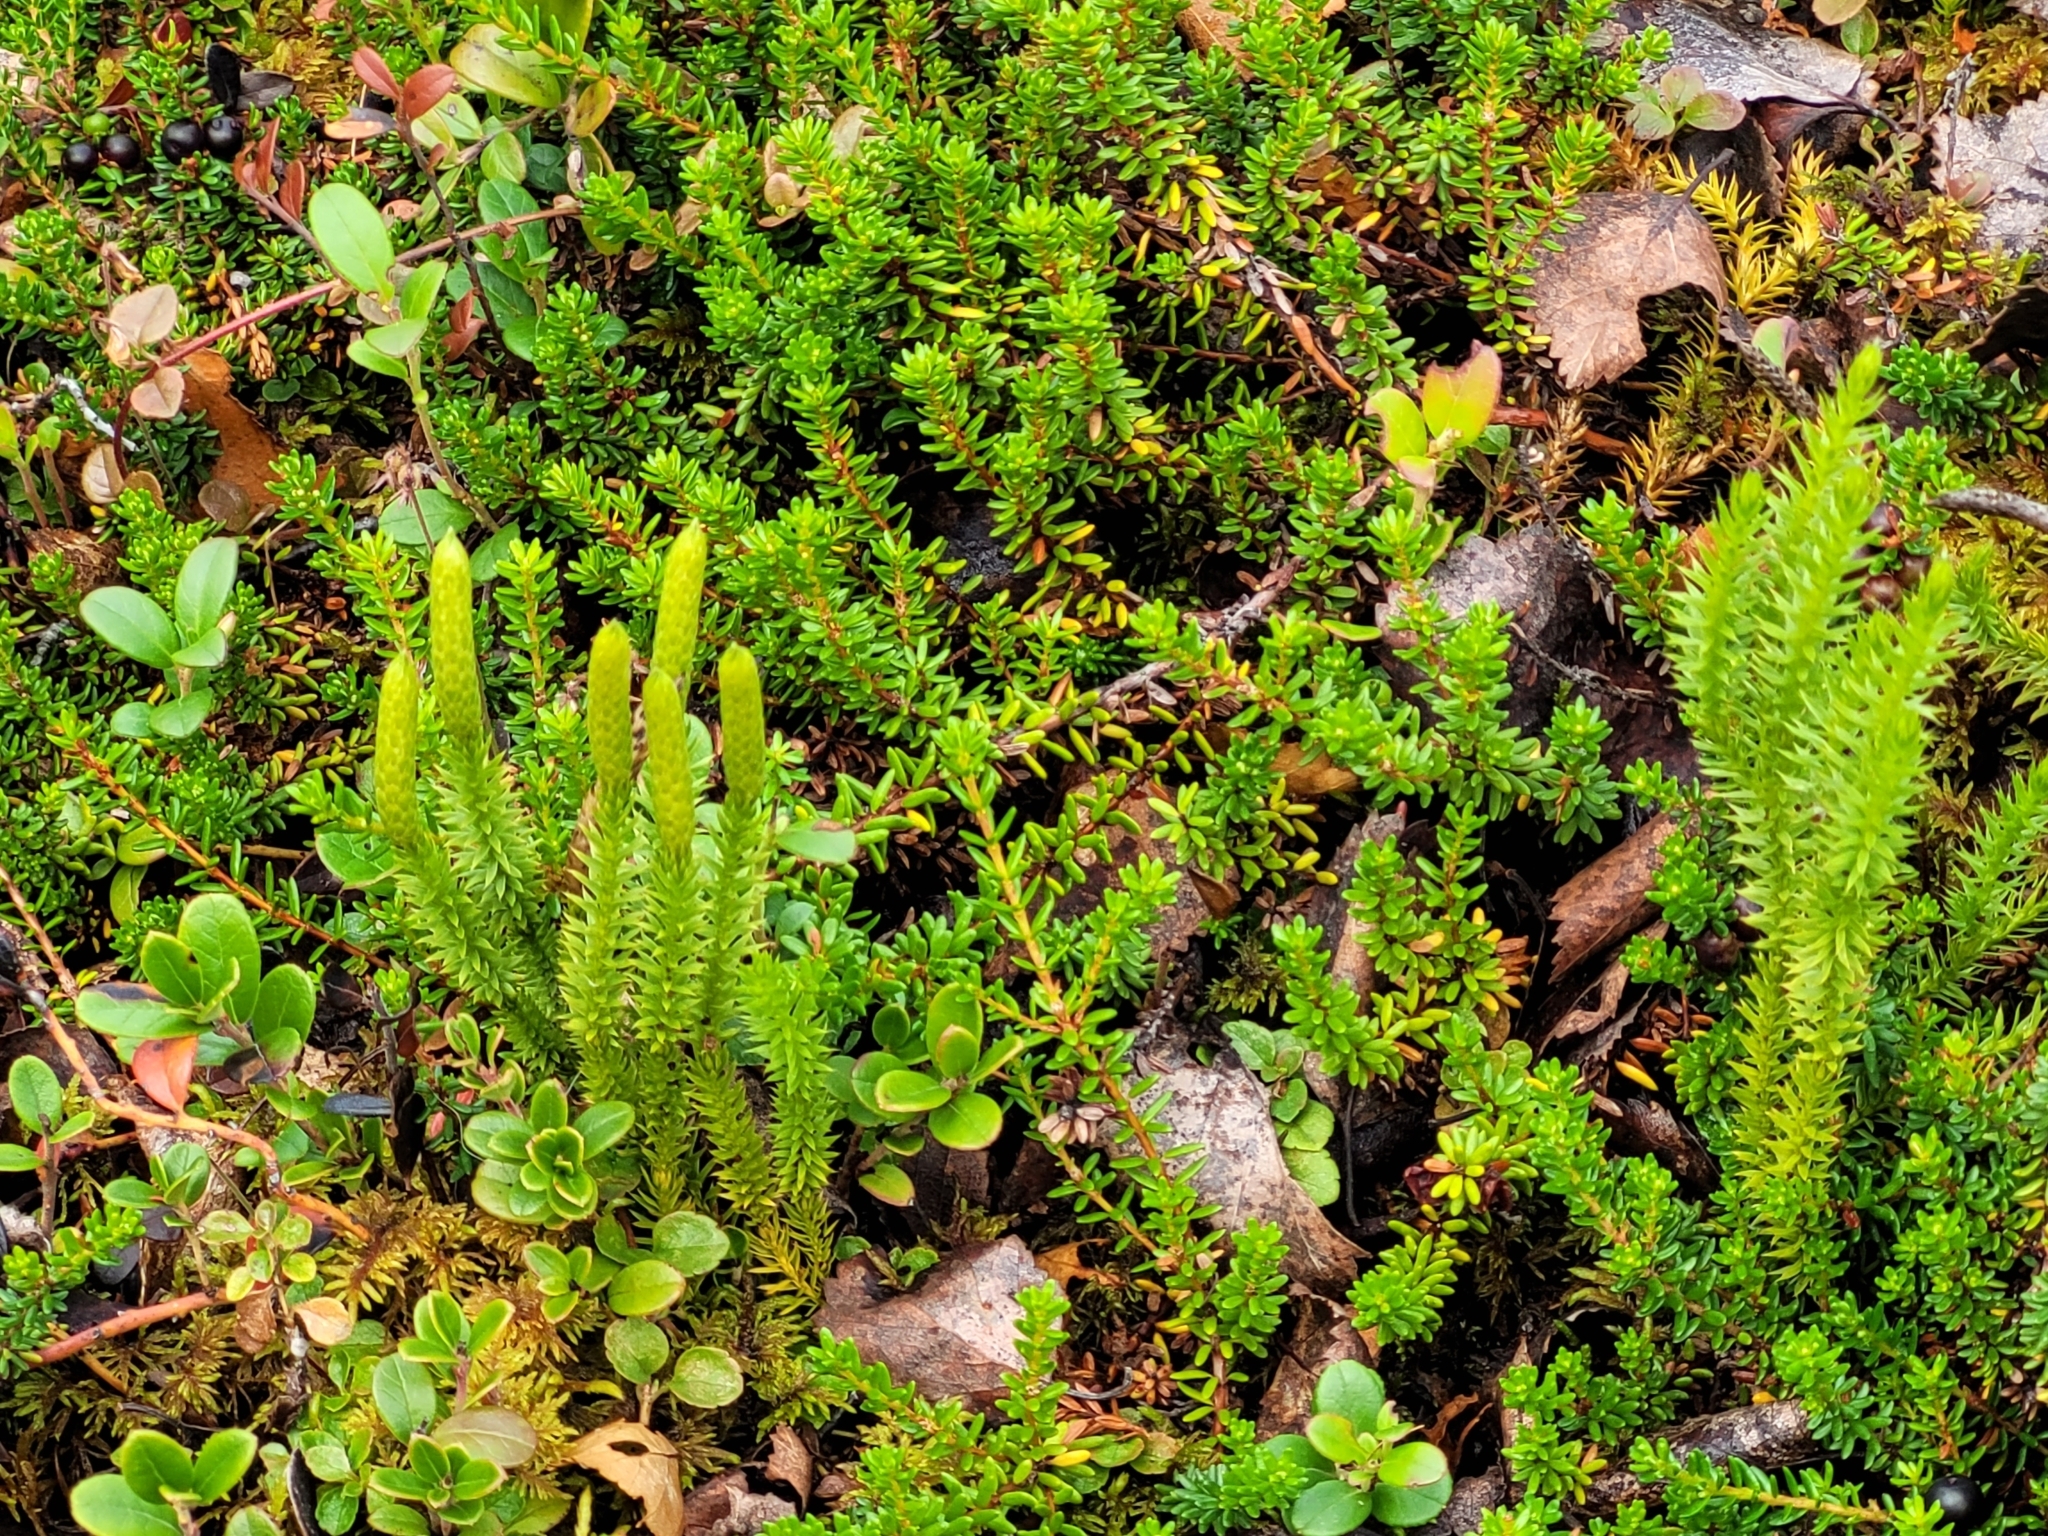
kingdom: Plantae
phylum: Tracheophyta
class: Lycopodiopsida
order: Lycopodiales
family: Lycopodiaceae
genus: Spinulum
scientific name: Spinulum annotinum
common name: Interrupted club-moss
